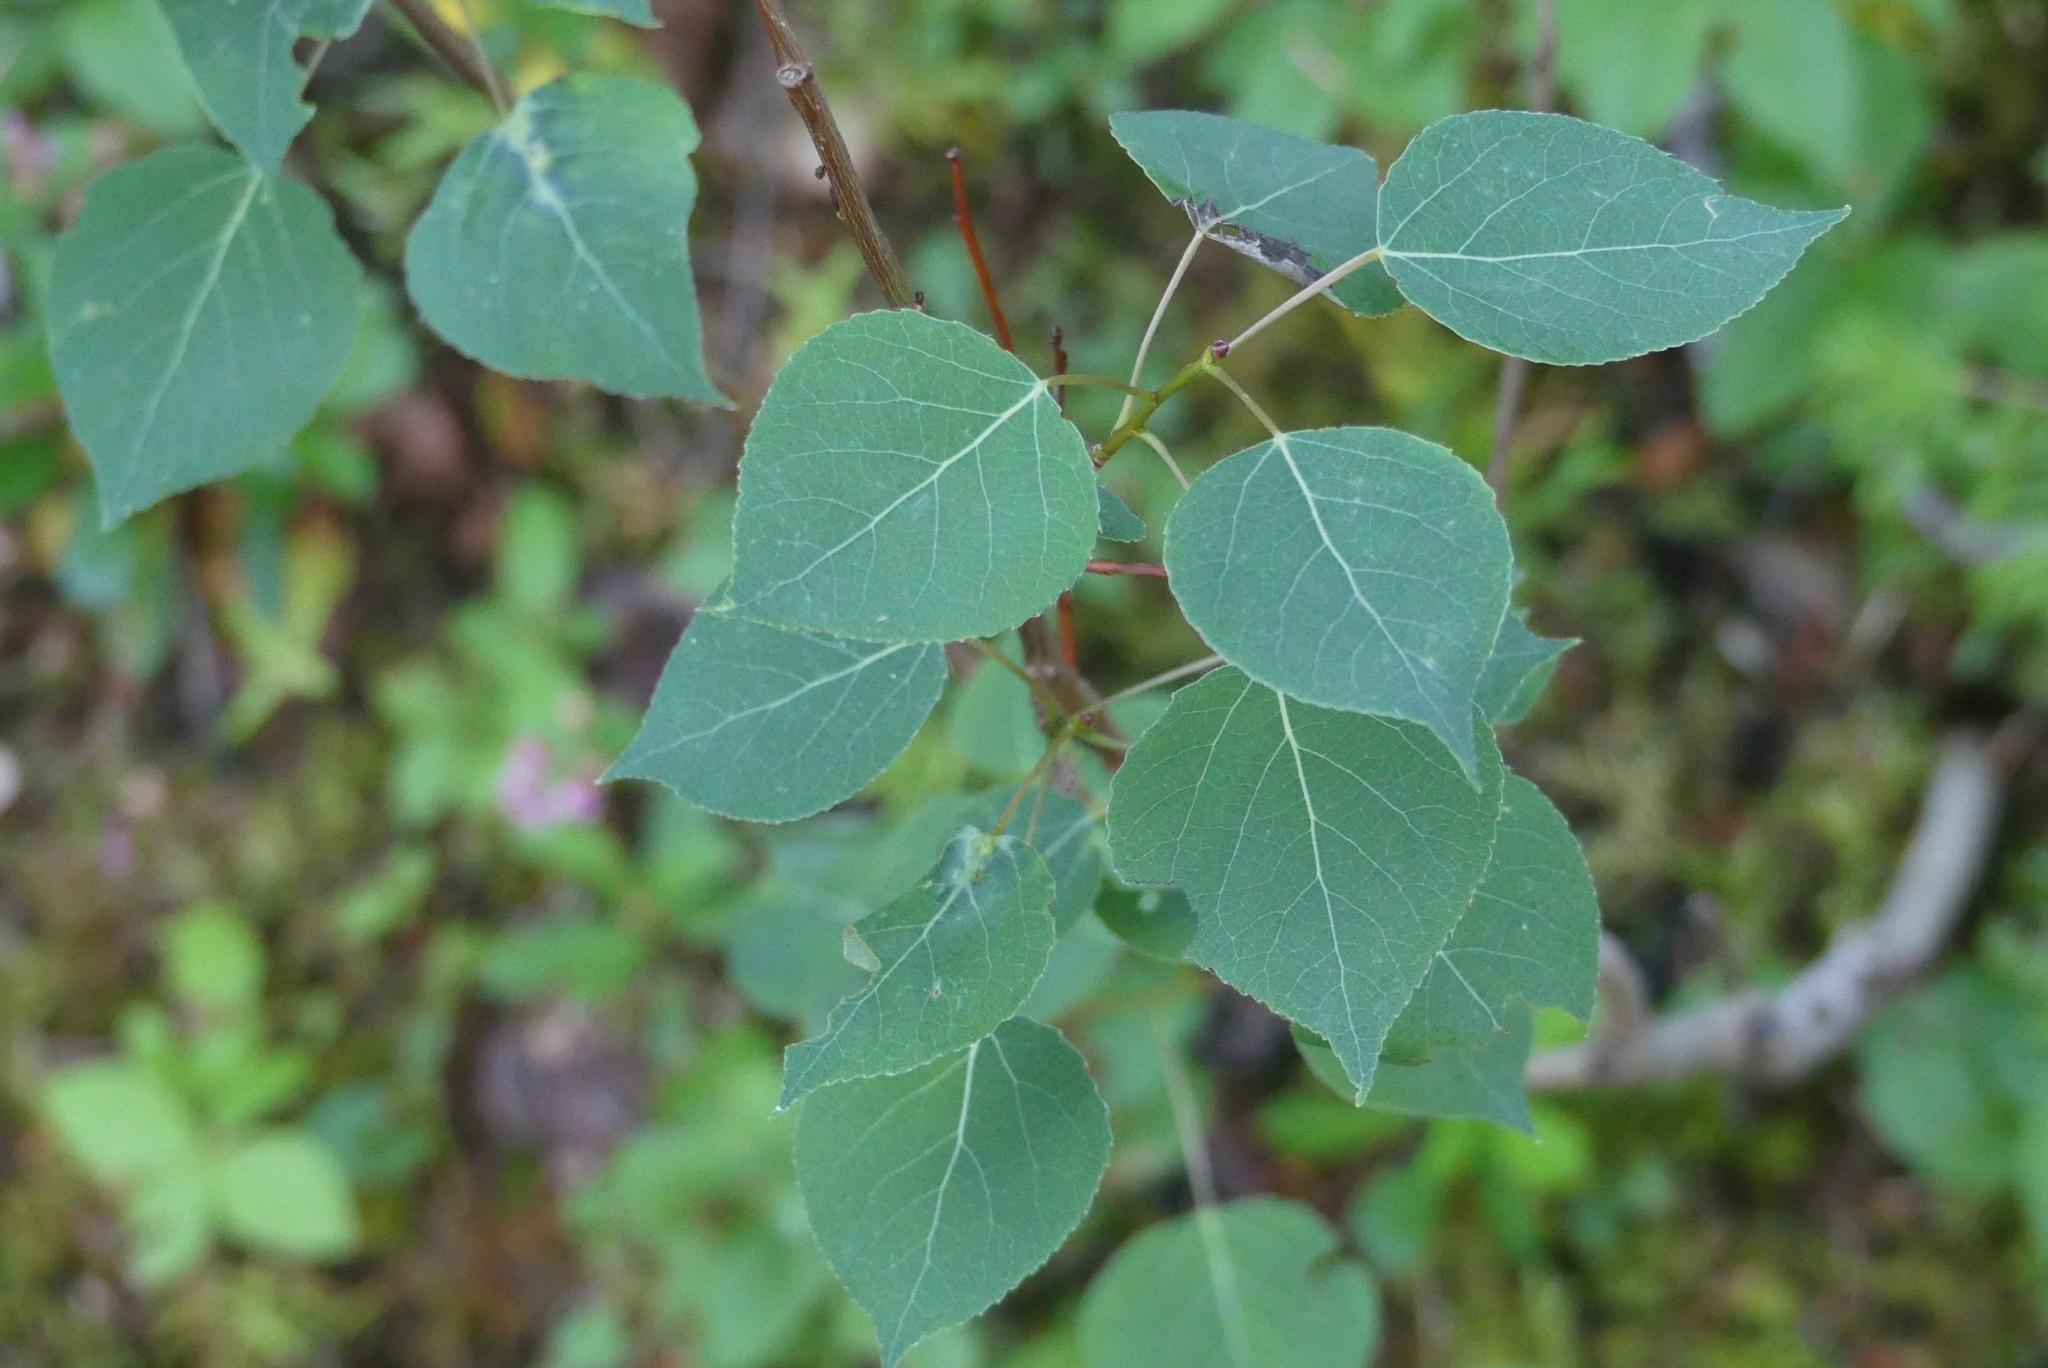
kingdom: Plantae
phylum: Tracheophyta
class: Magnoliopsida
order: Malpighiales
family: Salicaceae
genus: Populus
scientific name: Populus tremuloides
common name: Quaking aspen
